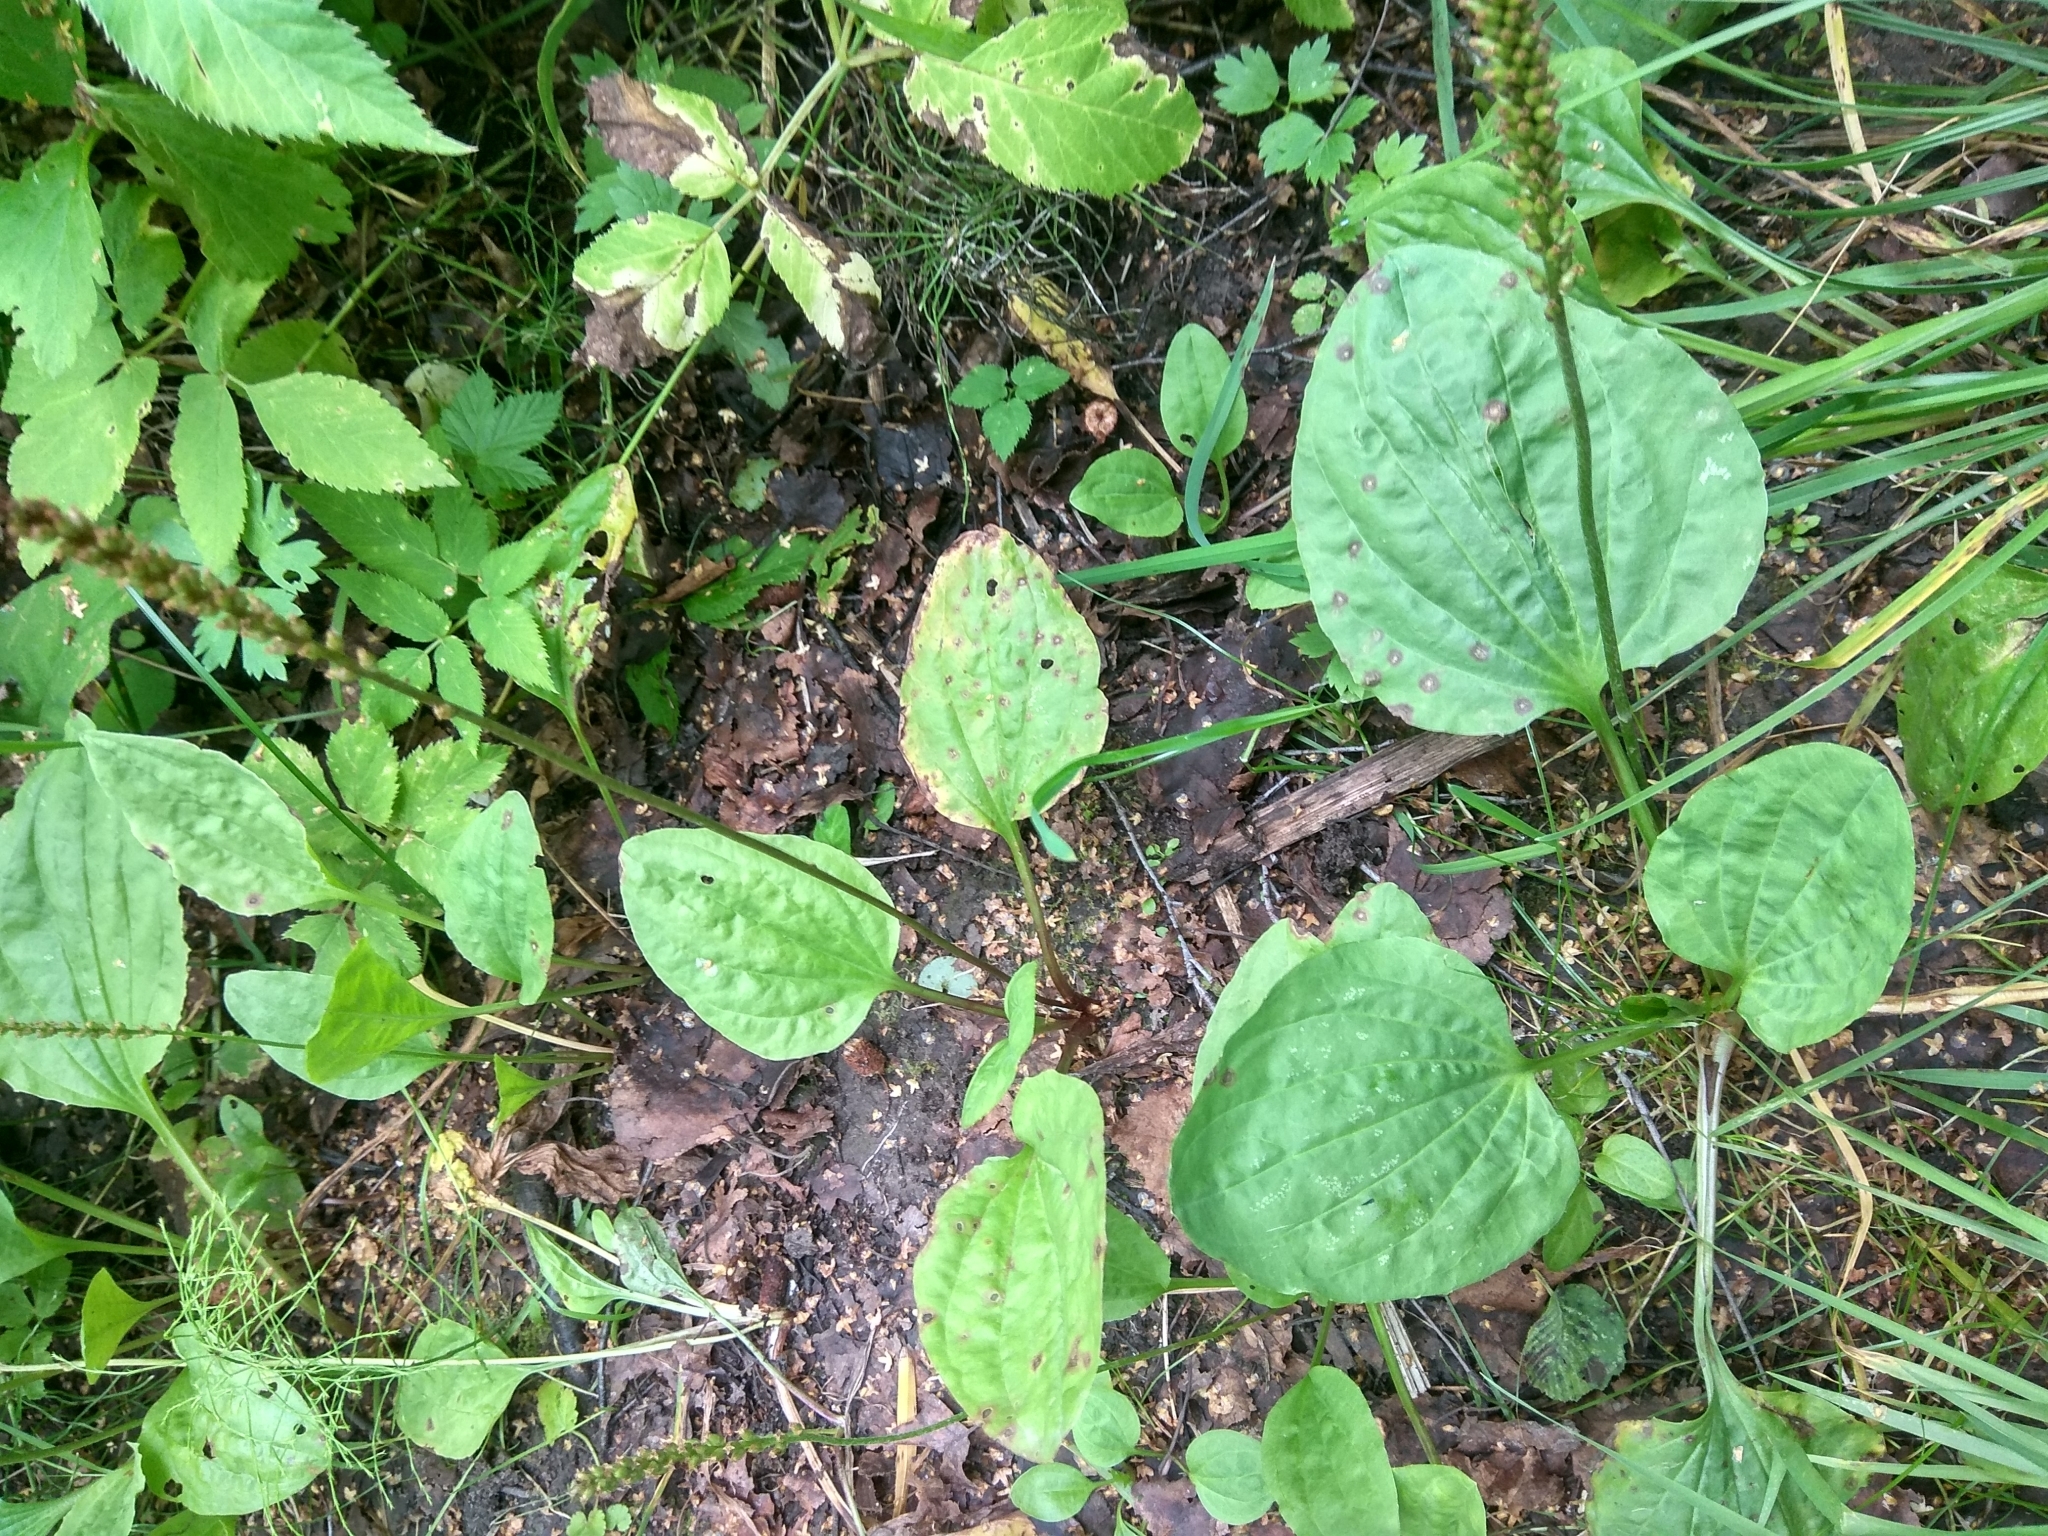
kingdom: Plantae
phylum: Tracheophyta
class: Magnoliopsida
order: Lamiales
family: Plantaginaceae
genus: Plantago
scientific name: Plantago major
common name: Common plantain
